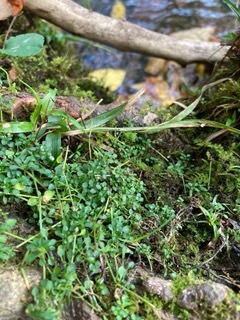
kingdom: Plantae
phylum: Tracheophyta
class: Magnoliopsida
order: Gentianales
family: Rubiaceae
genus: Houstonia
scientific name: Houstonia serpyllifolia
